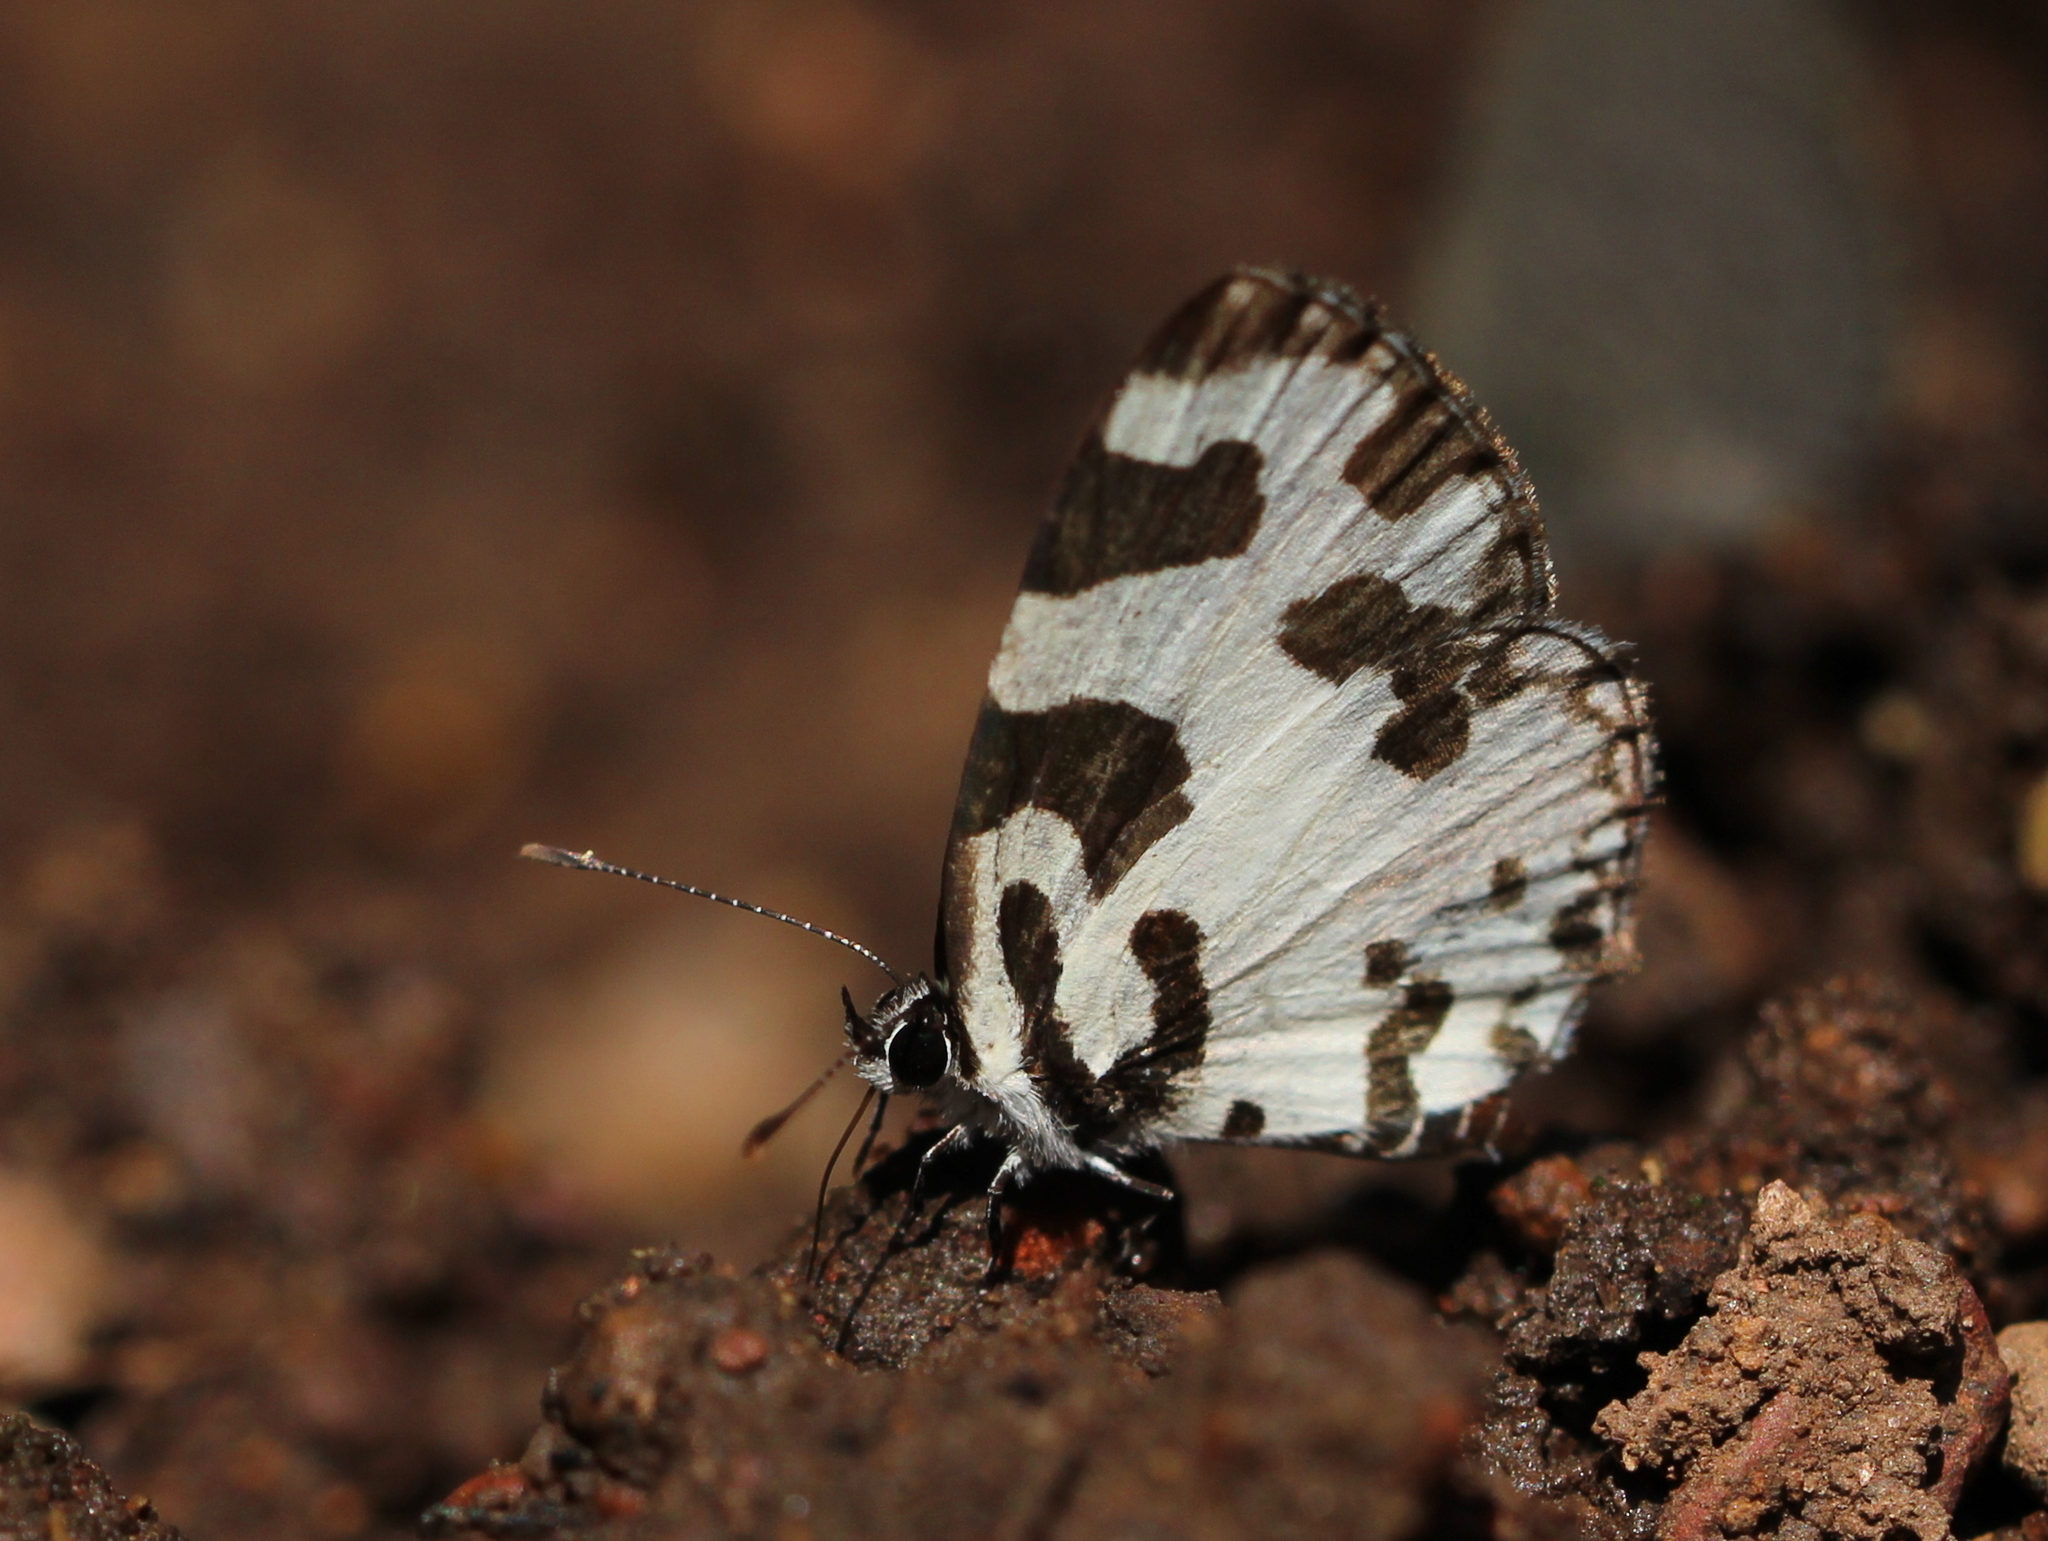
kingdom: Animalia
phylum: Arthropoda
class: Insecta
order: Lepidoptera
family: Lycaenidae
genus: Caleta
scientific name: Caleta decidia
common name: Angled pierrot
